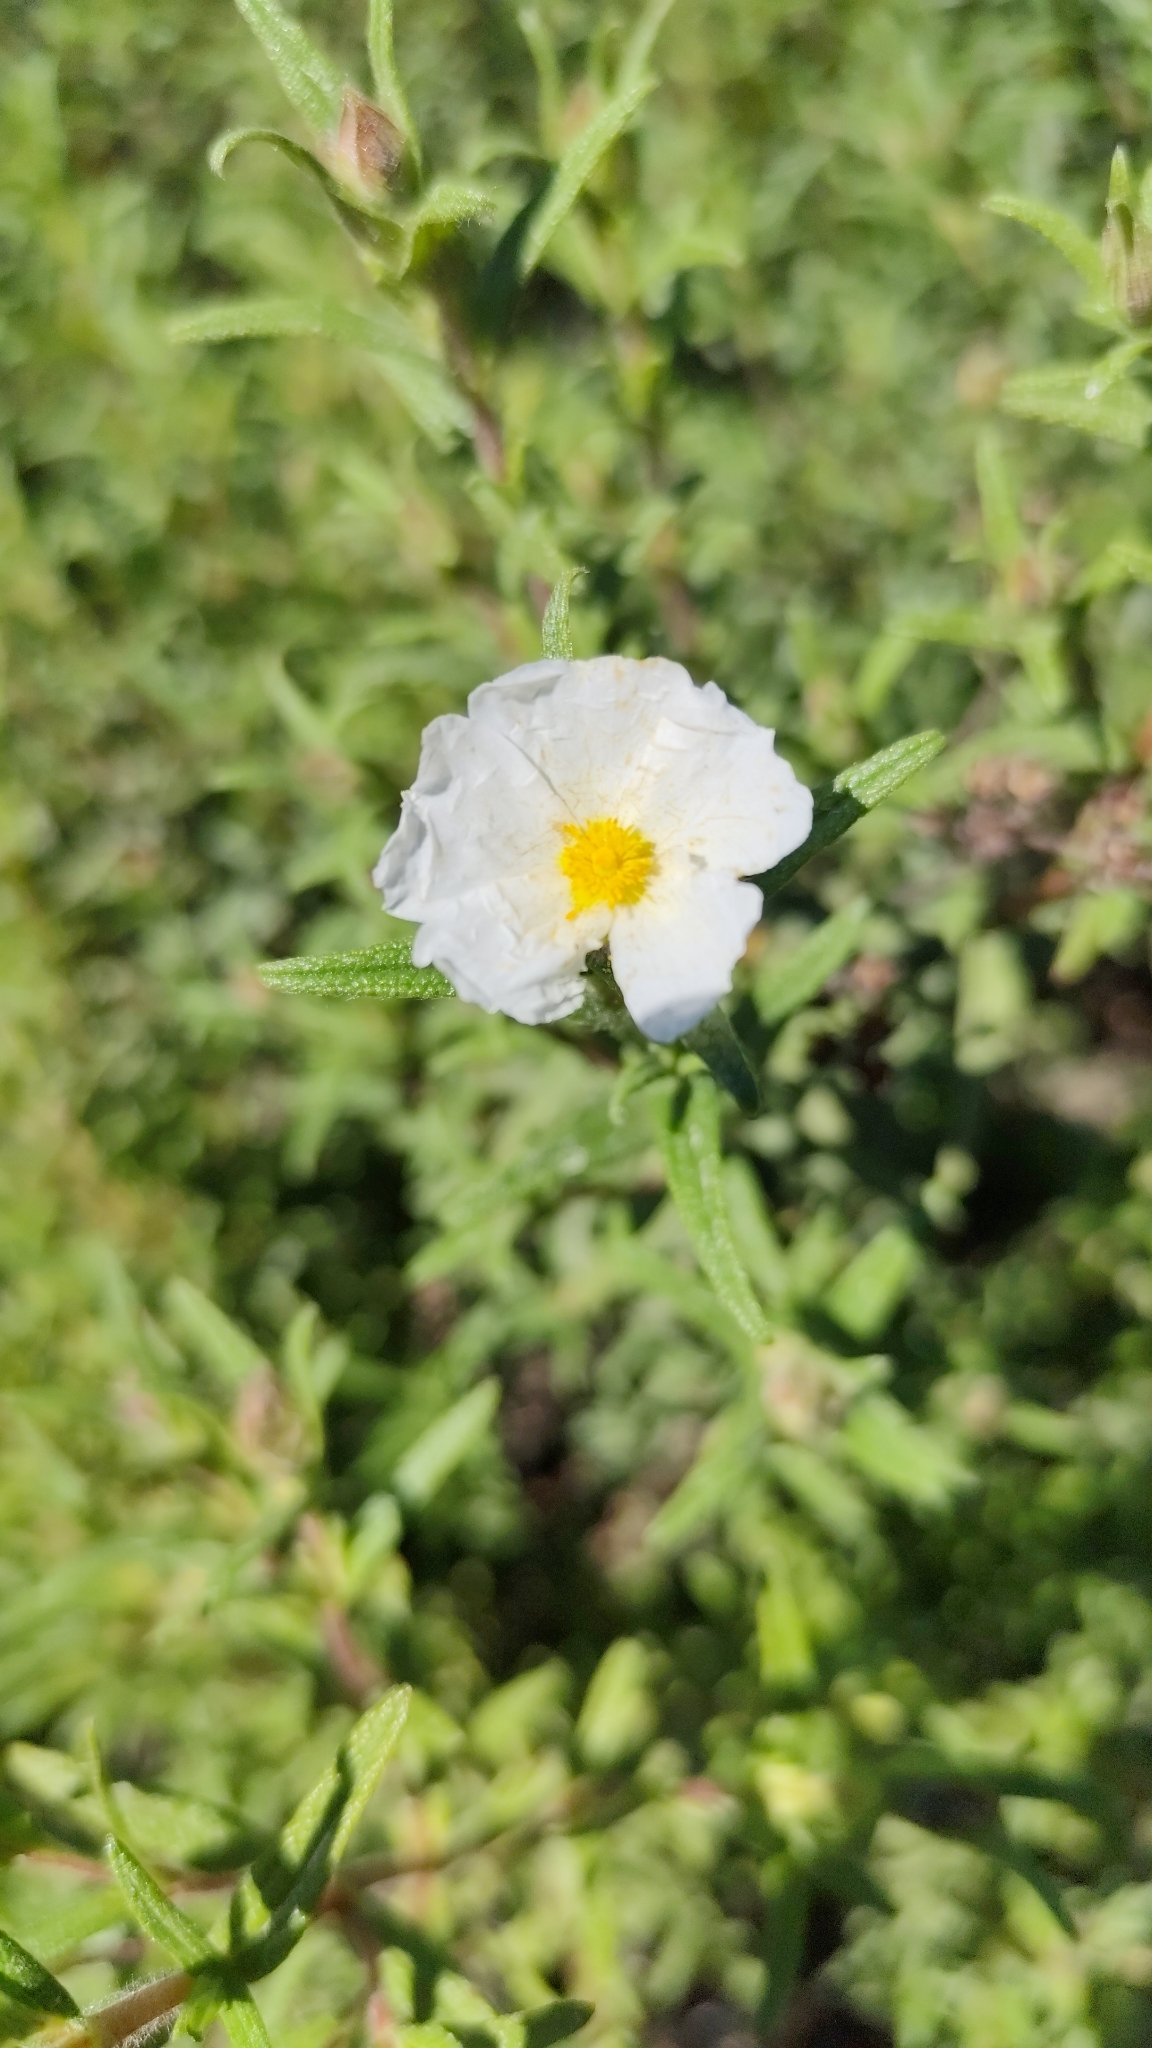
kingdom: Plantae
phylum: Tracheophyta
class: Magnoliopsida
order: Malvales
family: Cistaceae
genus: Cistus
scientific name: Cistus monspeliensis
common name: Montpelier cistus
